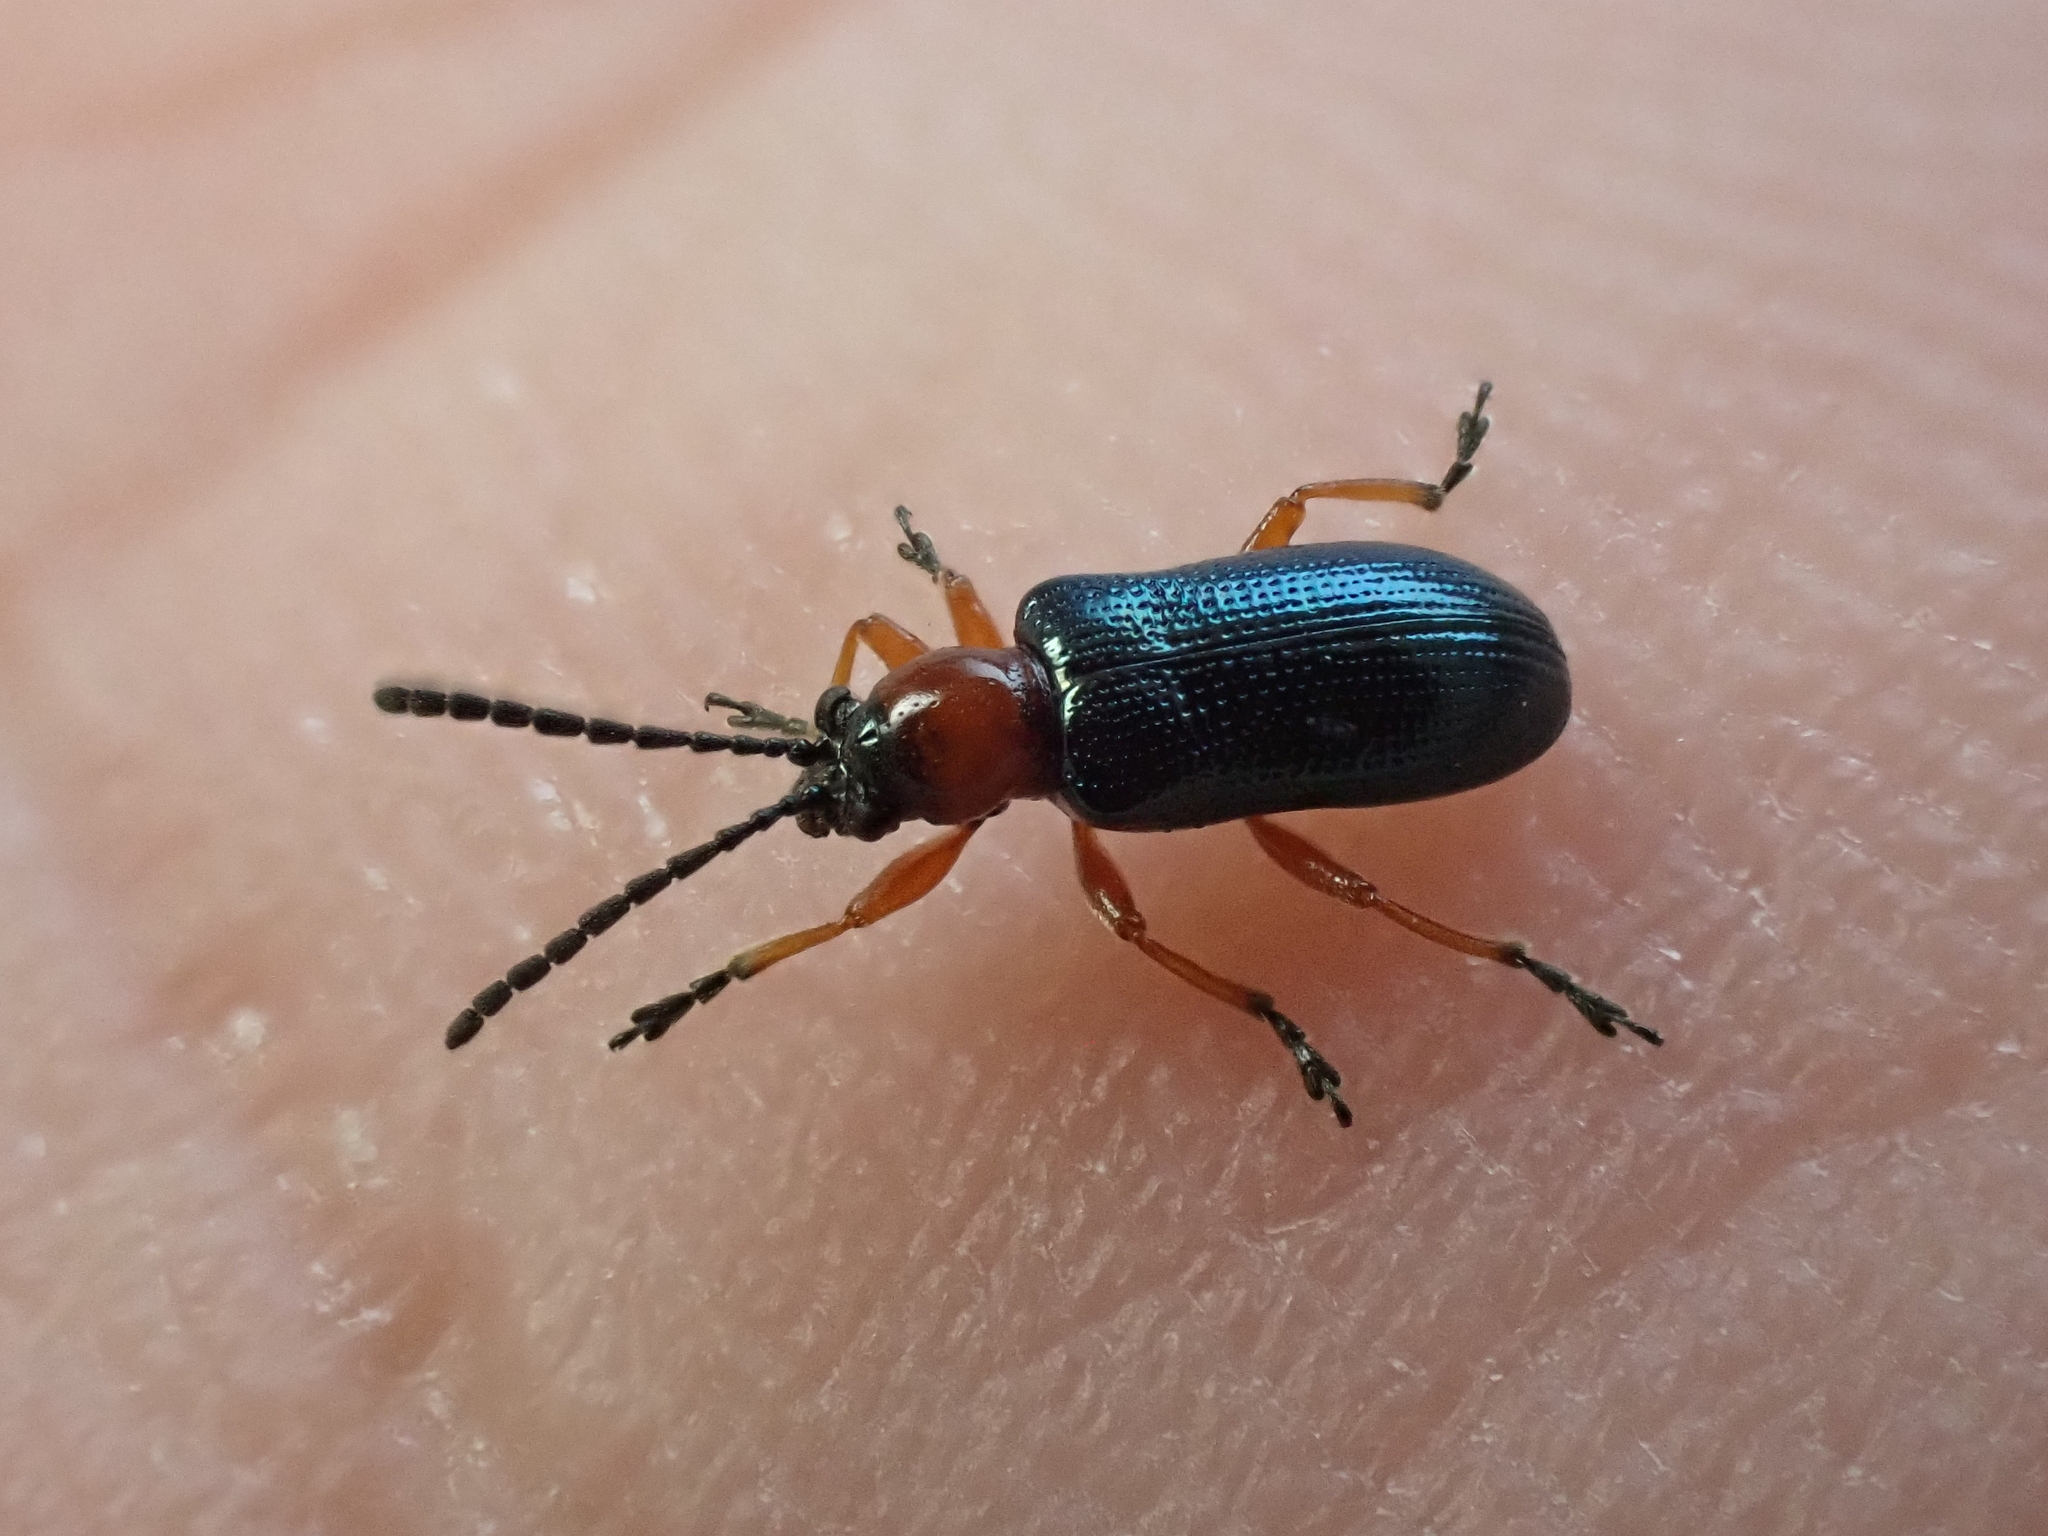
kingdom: Animalia
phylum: Arthropoda
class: Insecta
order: Coleoptera
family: Chrysomelidae
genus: Oulema
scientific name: Oulema
